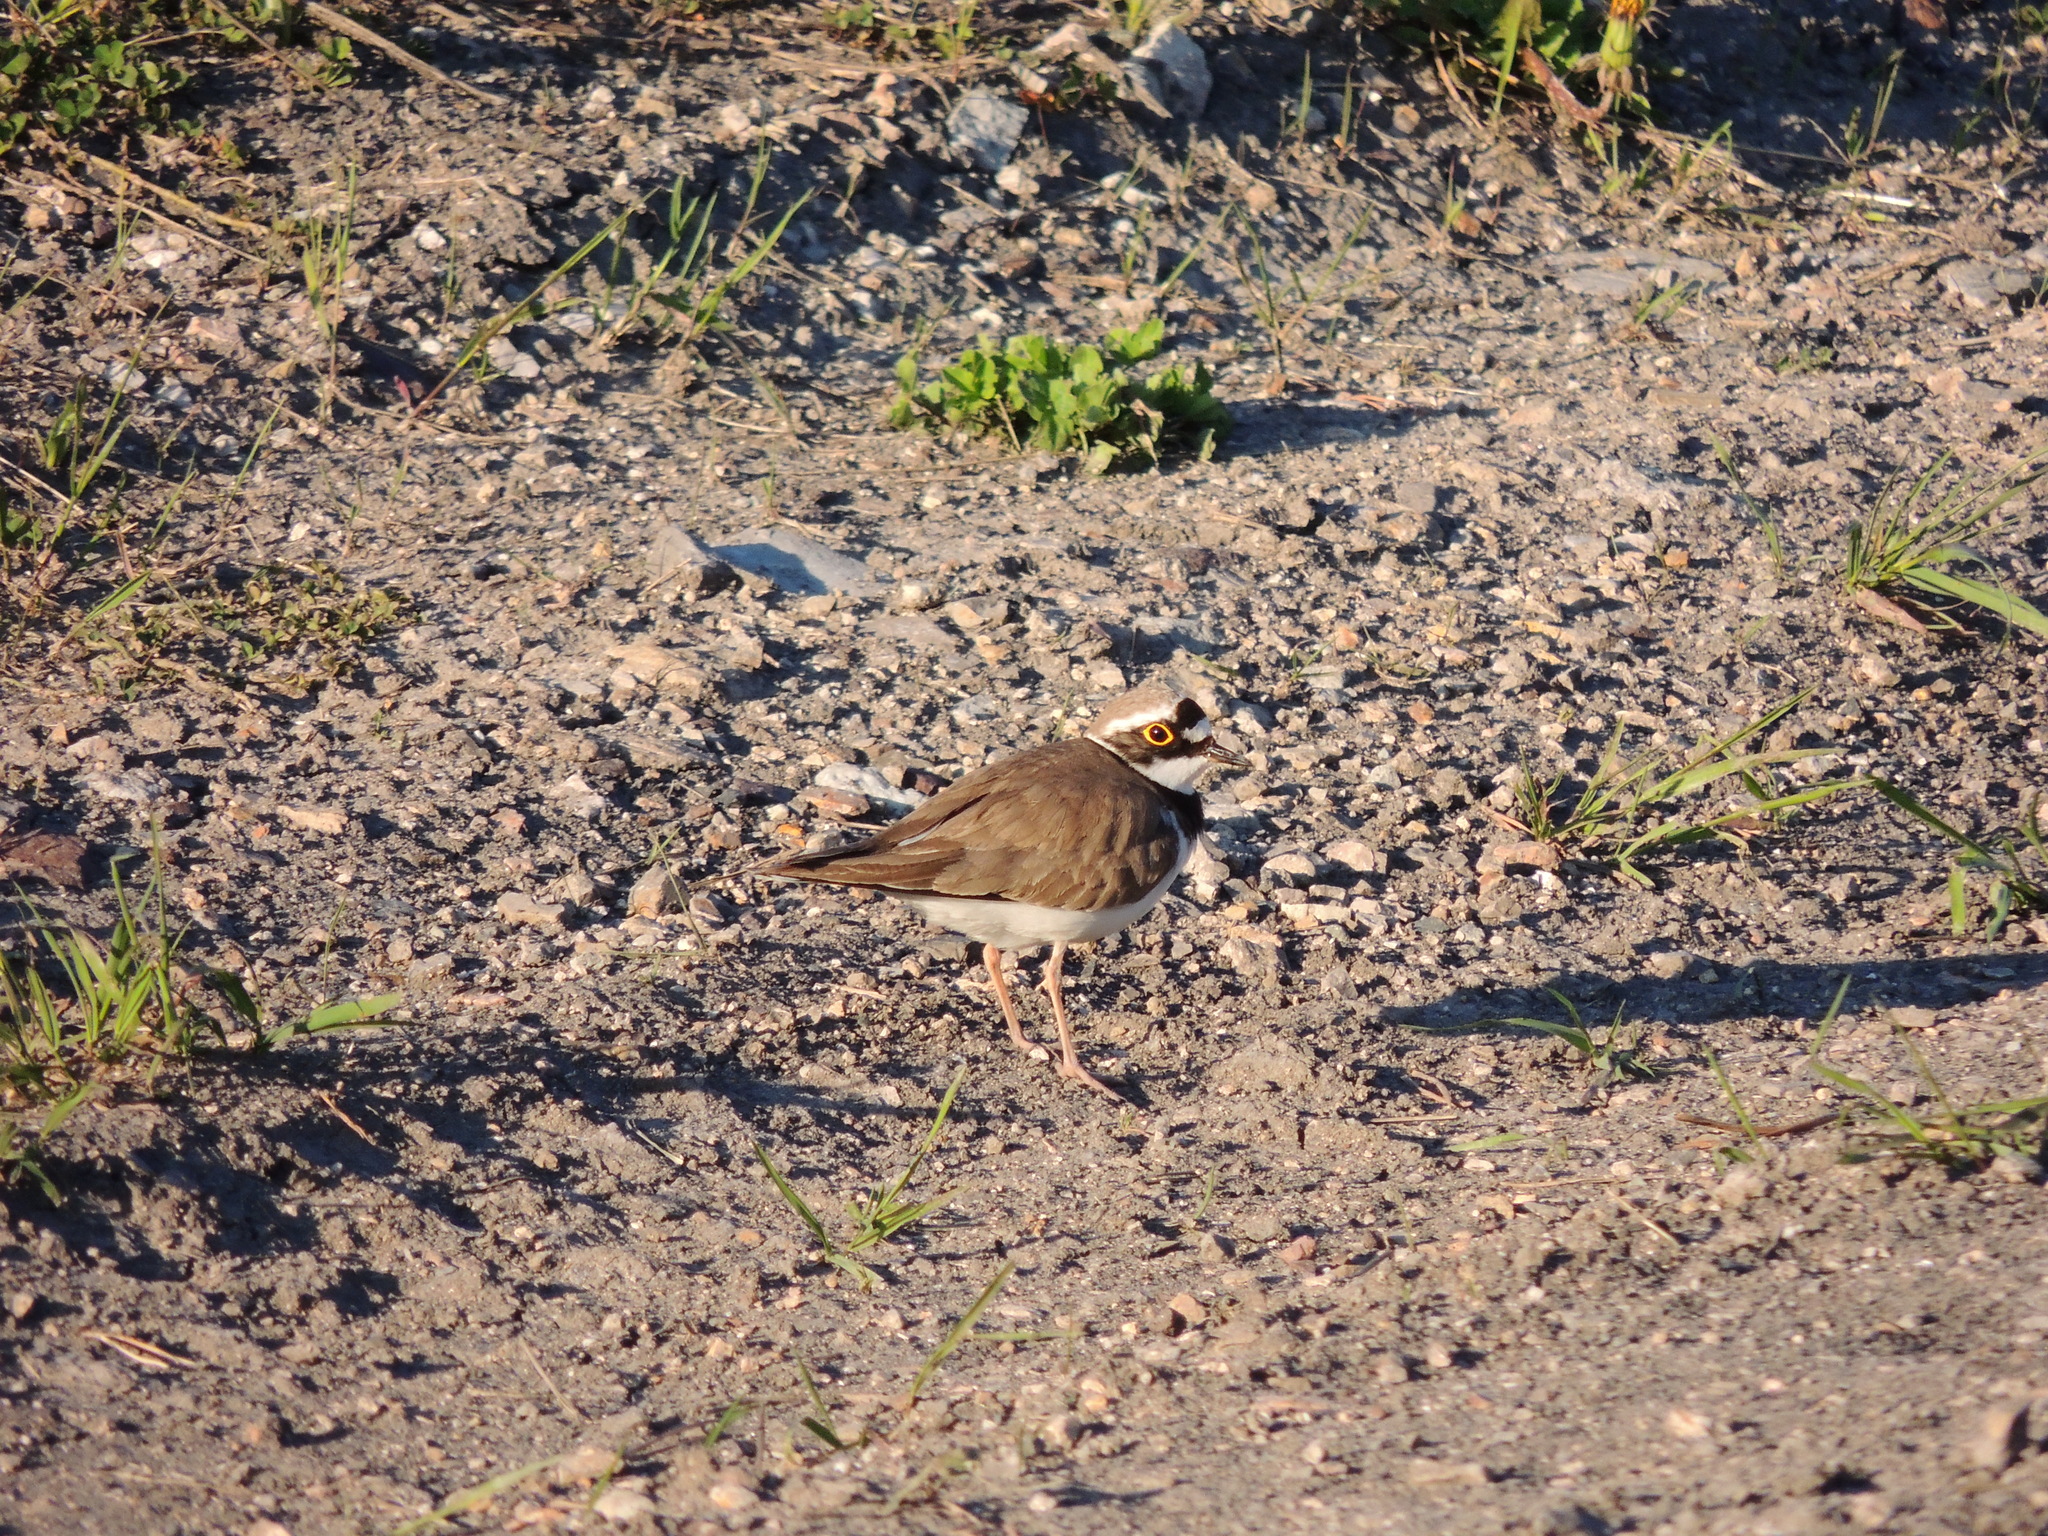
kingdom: Animalia
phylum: Chordata
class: Aves
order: Charadriiformes
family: Charadriidae
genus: Charadrius
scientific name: Charadrius dubius
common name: Little ringed plover
